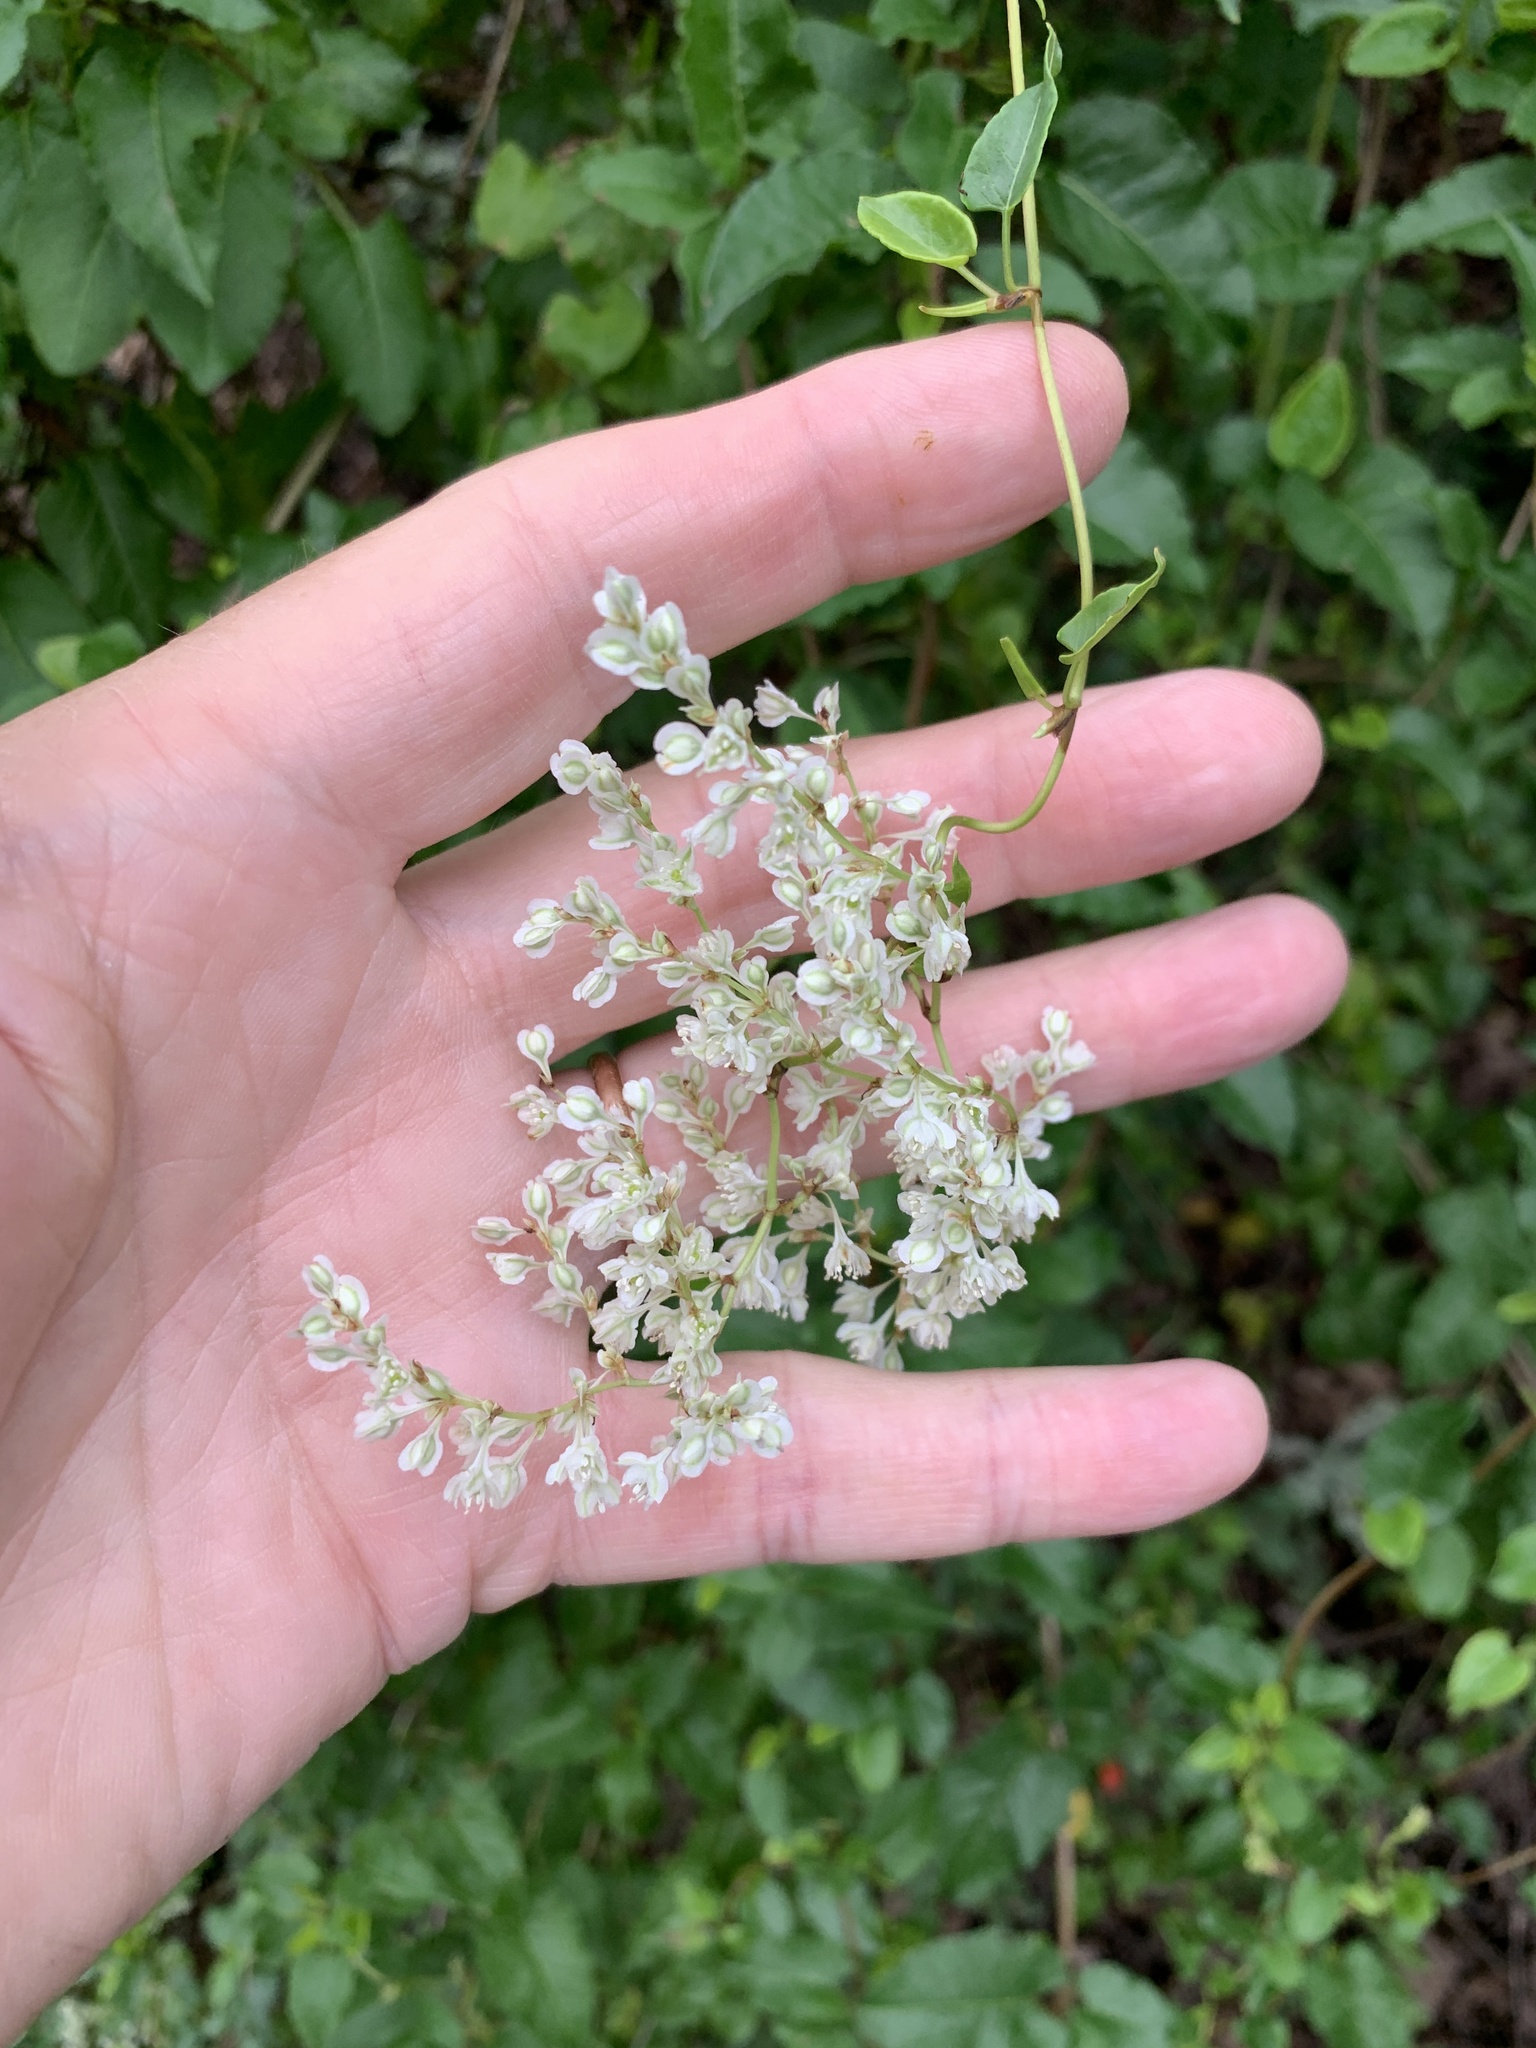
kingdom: Plantae
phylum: Tracheophyta
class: Magnoliopsida
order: Caryophyllales
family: Polygonaceae
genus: Fallopia
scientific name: Fallopia baldschuanica
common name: Russian-vine
